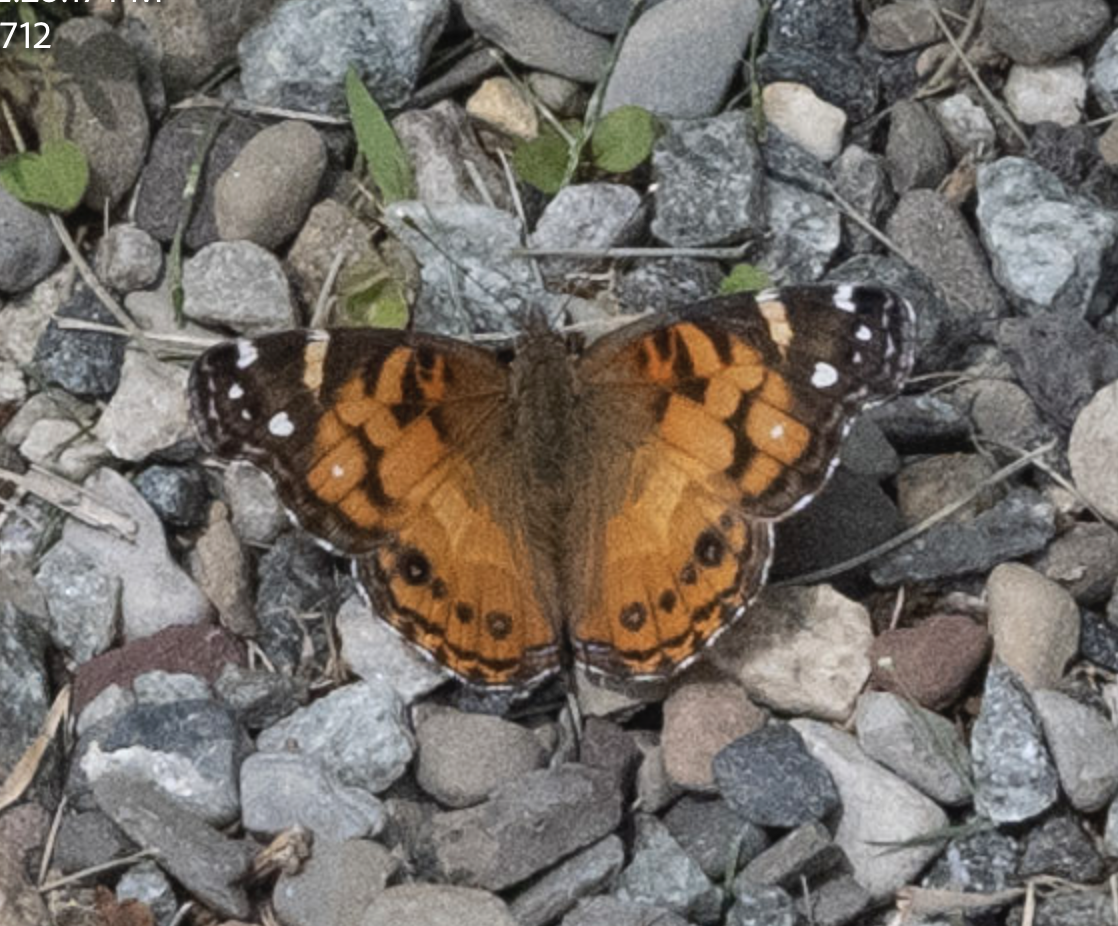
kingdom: Animalia
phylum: Arthropoda
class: Insecta
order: Lepidoptera
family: Nymphalidae
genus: Vanessa
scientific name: Vanessa virginiensis
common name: American lady
